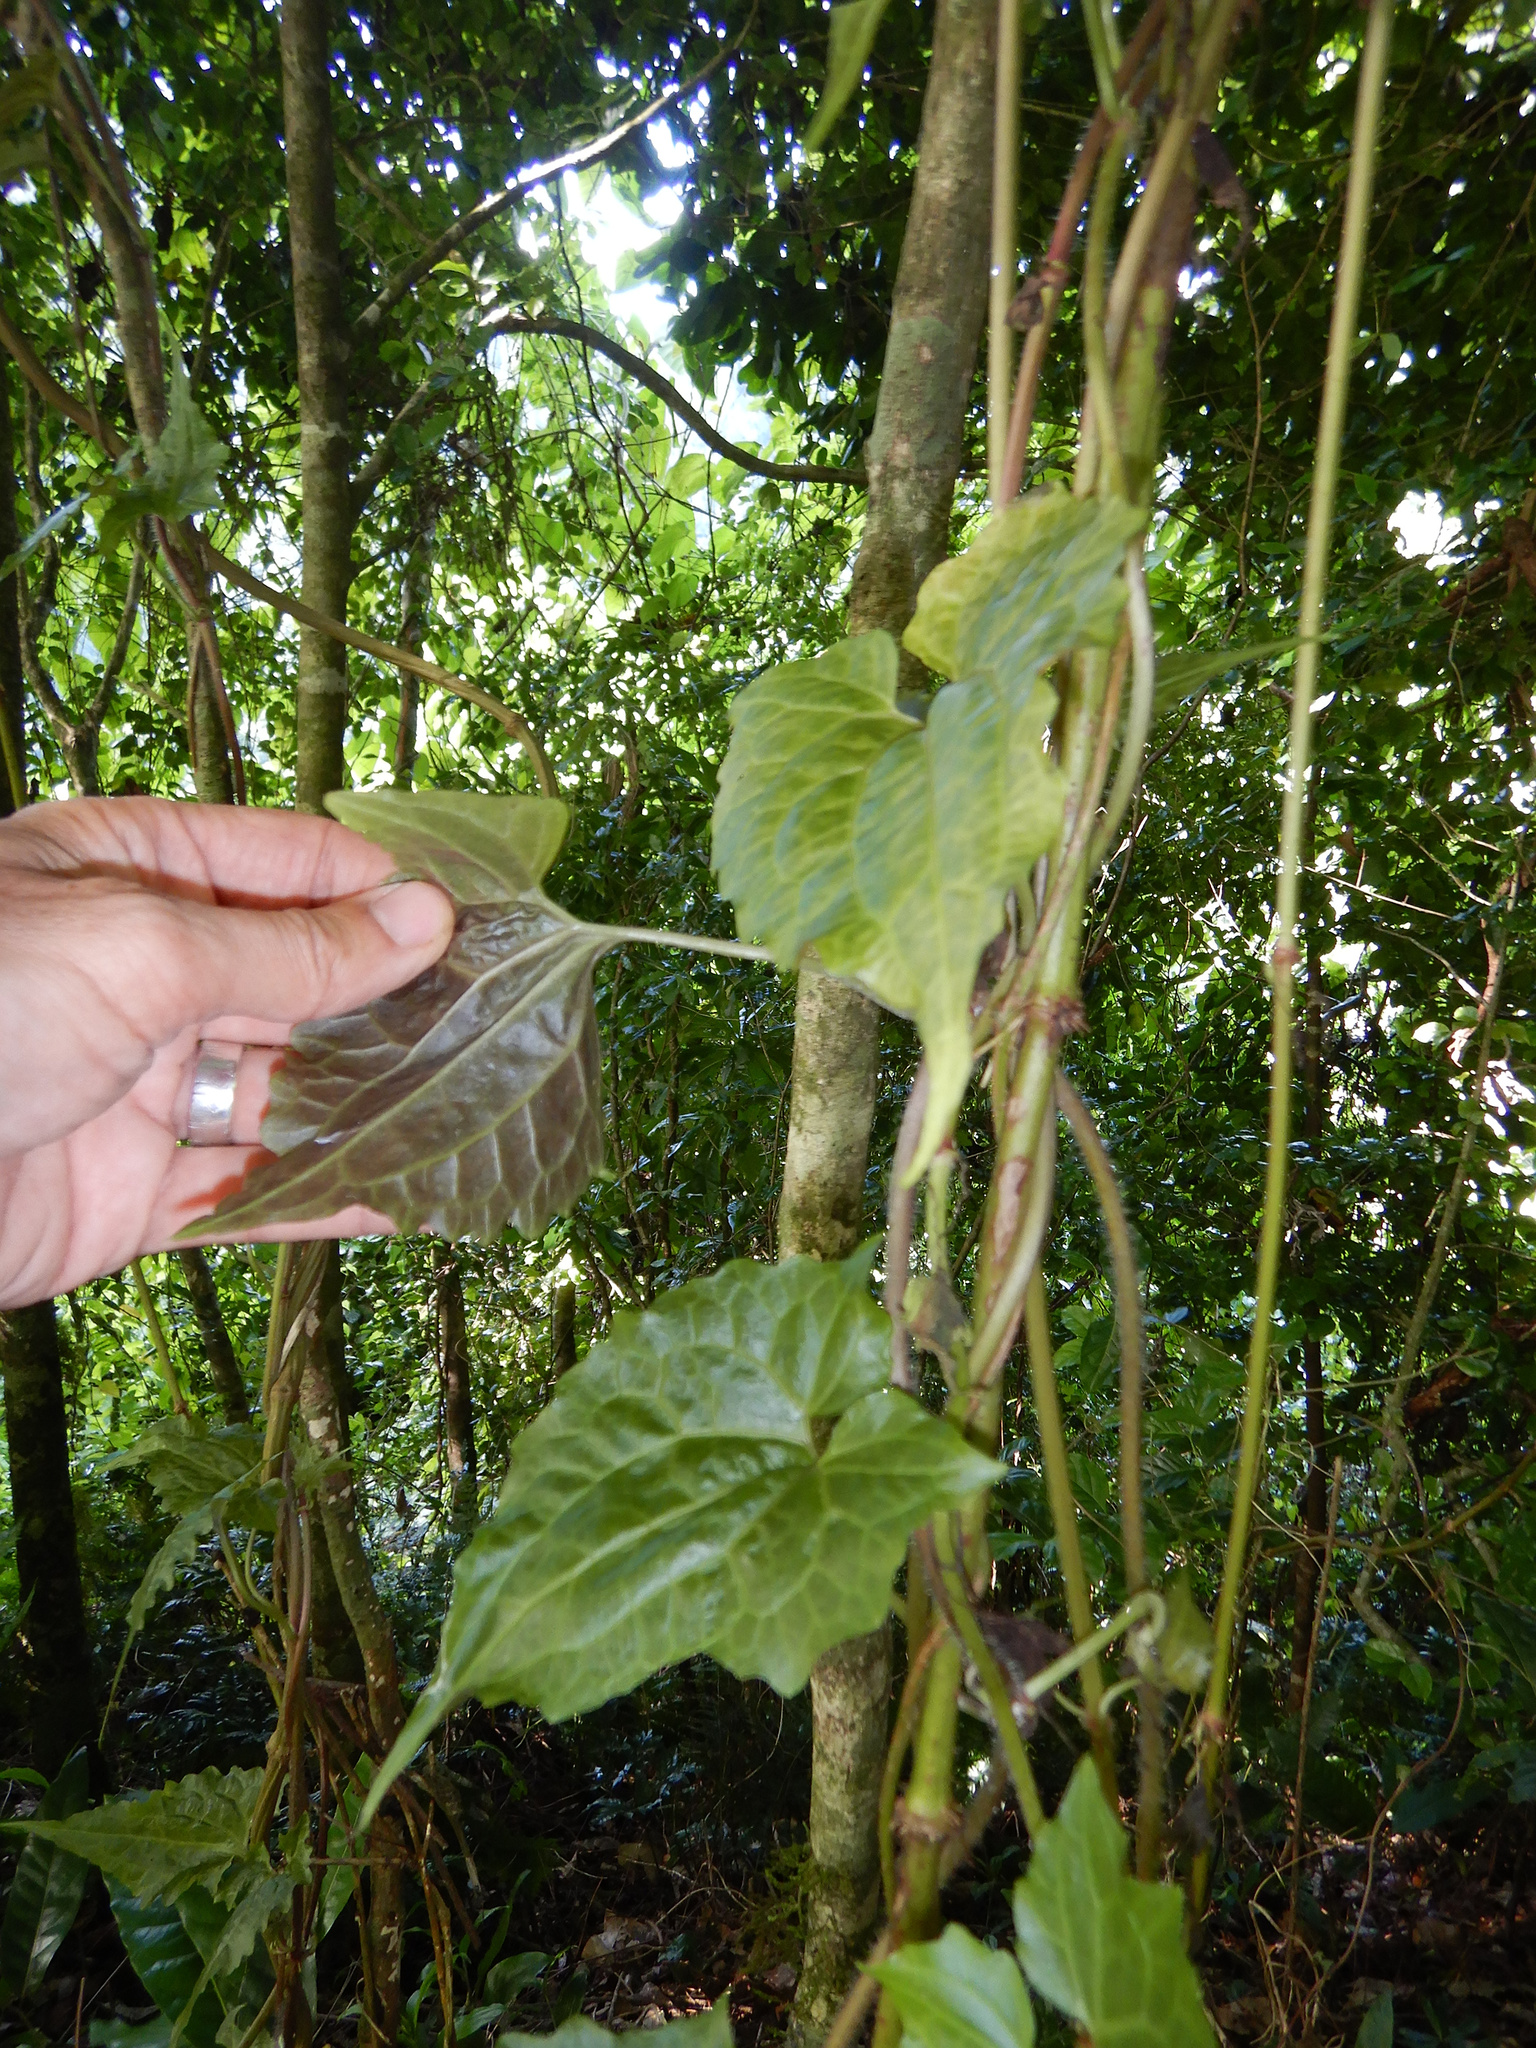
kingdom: Plantae
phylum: Tracheophyta
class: Magnoliopsida
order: Asterales
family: Asteraceae
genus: Mikania
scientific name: Mikania micrantha
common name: Mile-a-minute
